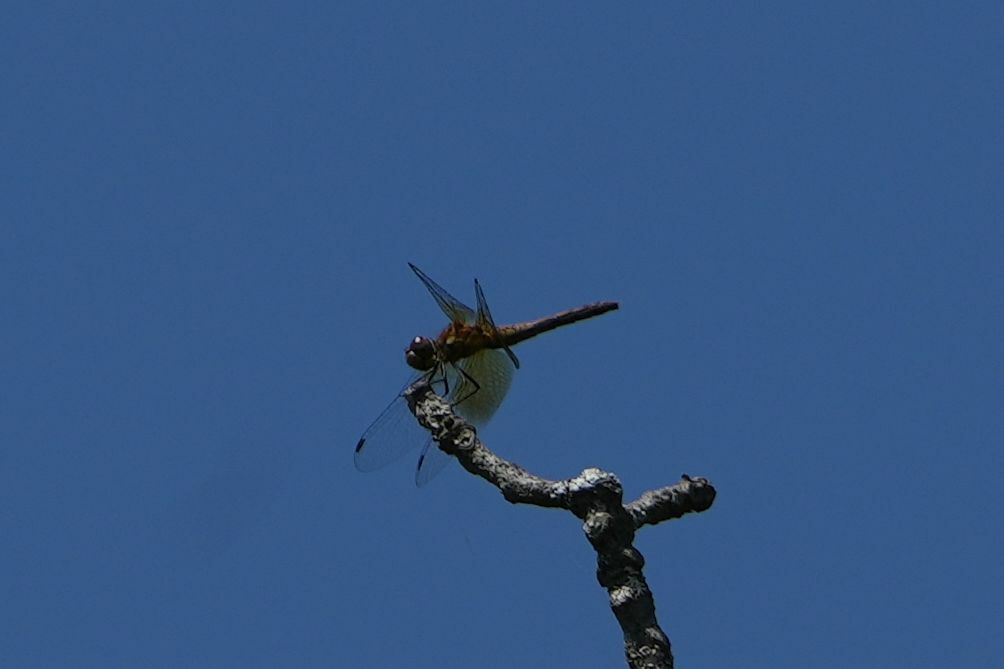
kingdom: Animalia
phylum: Arthropoda
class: Insecta
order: Odonata
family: Libellulidae
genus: Sympetrum
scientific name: Sympetrum semicinctum
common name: Band-winged meadowhawk
